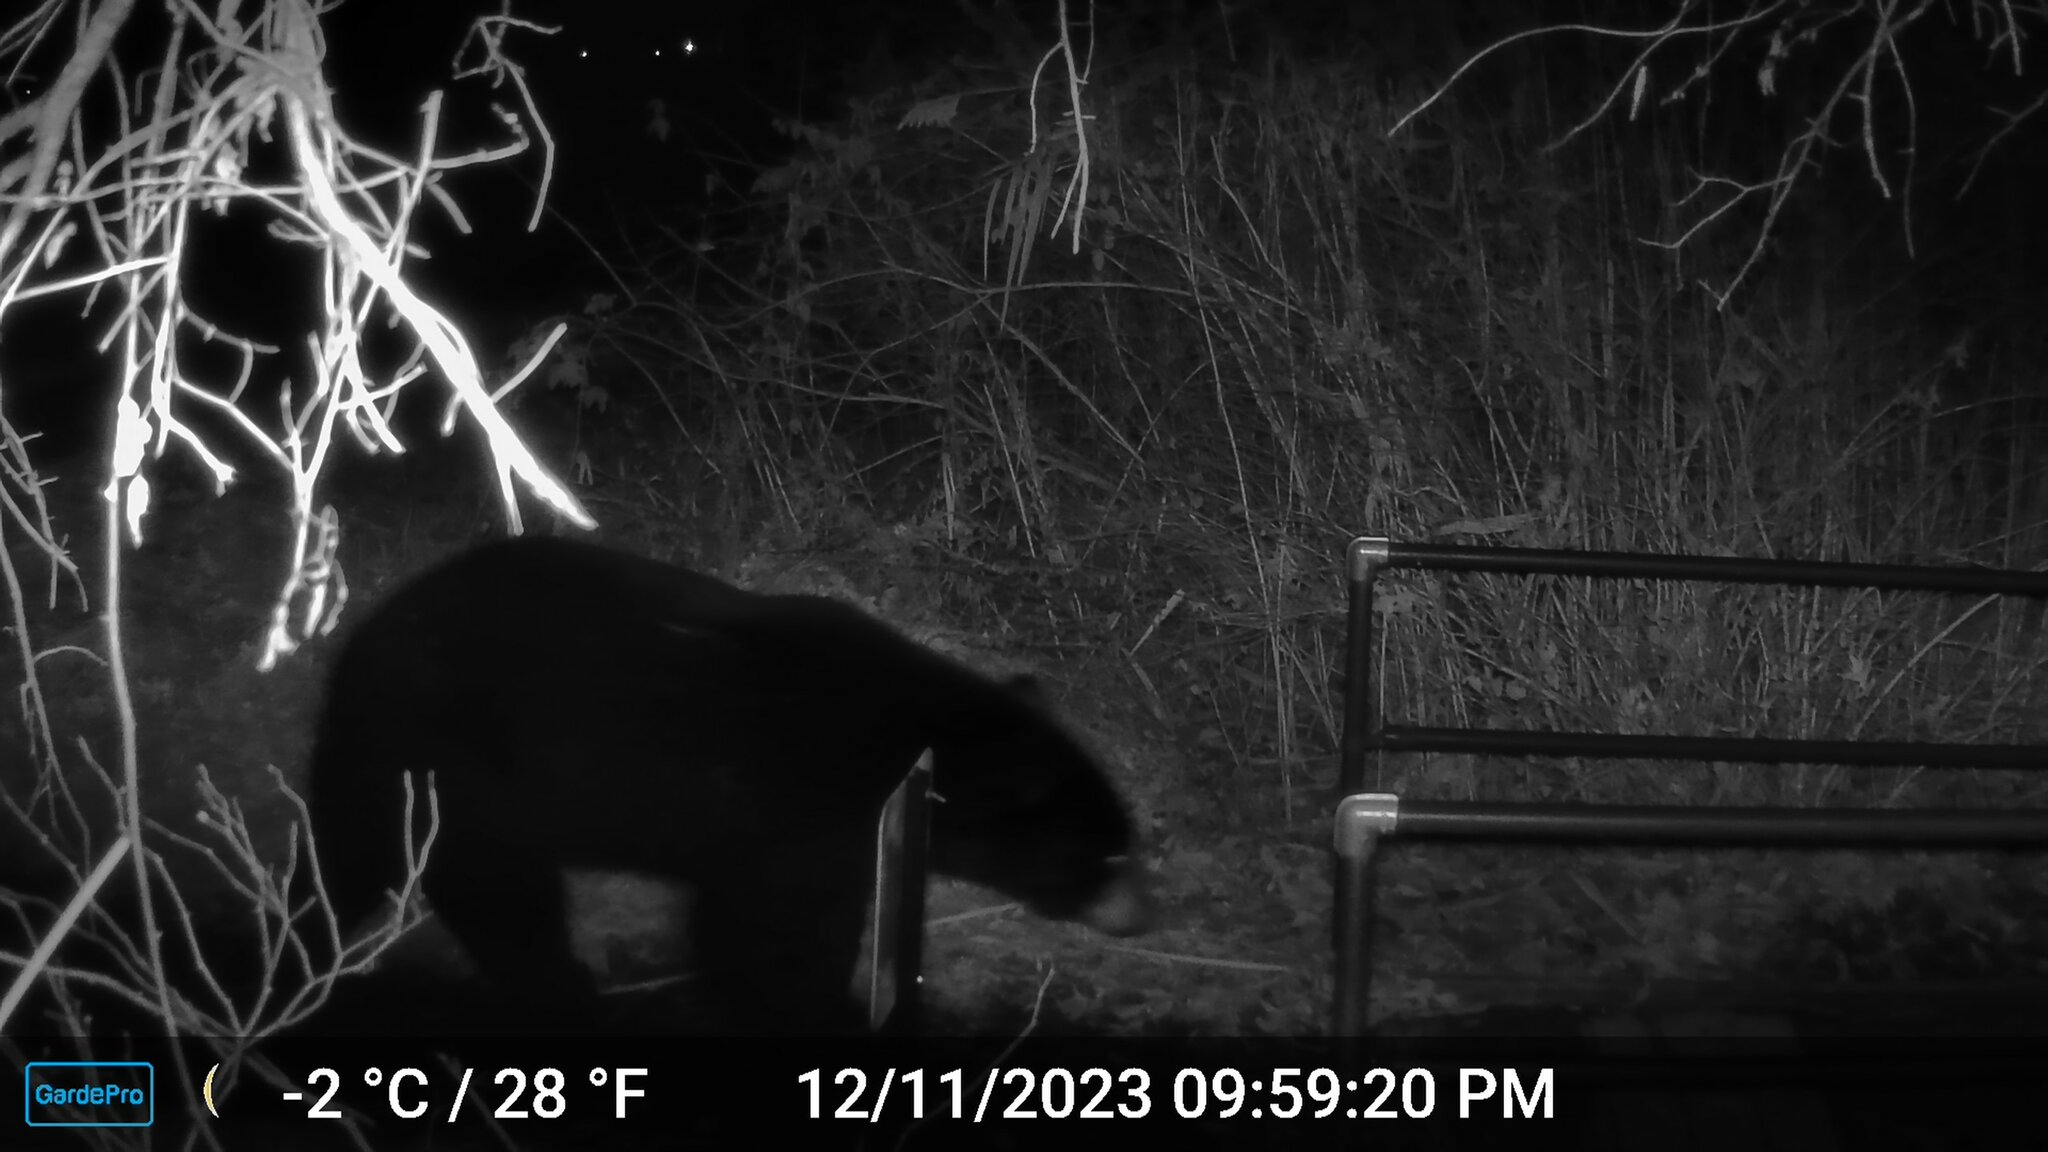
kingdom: Animalia
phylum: Chordata
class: Mammalia
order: Carnivora
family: Ursidae
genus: Ursus
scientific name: Ursus americanus
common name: American black bear
